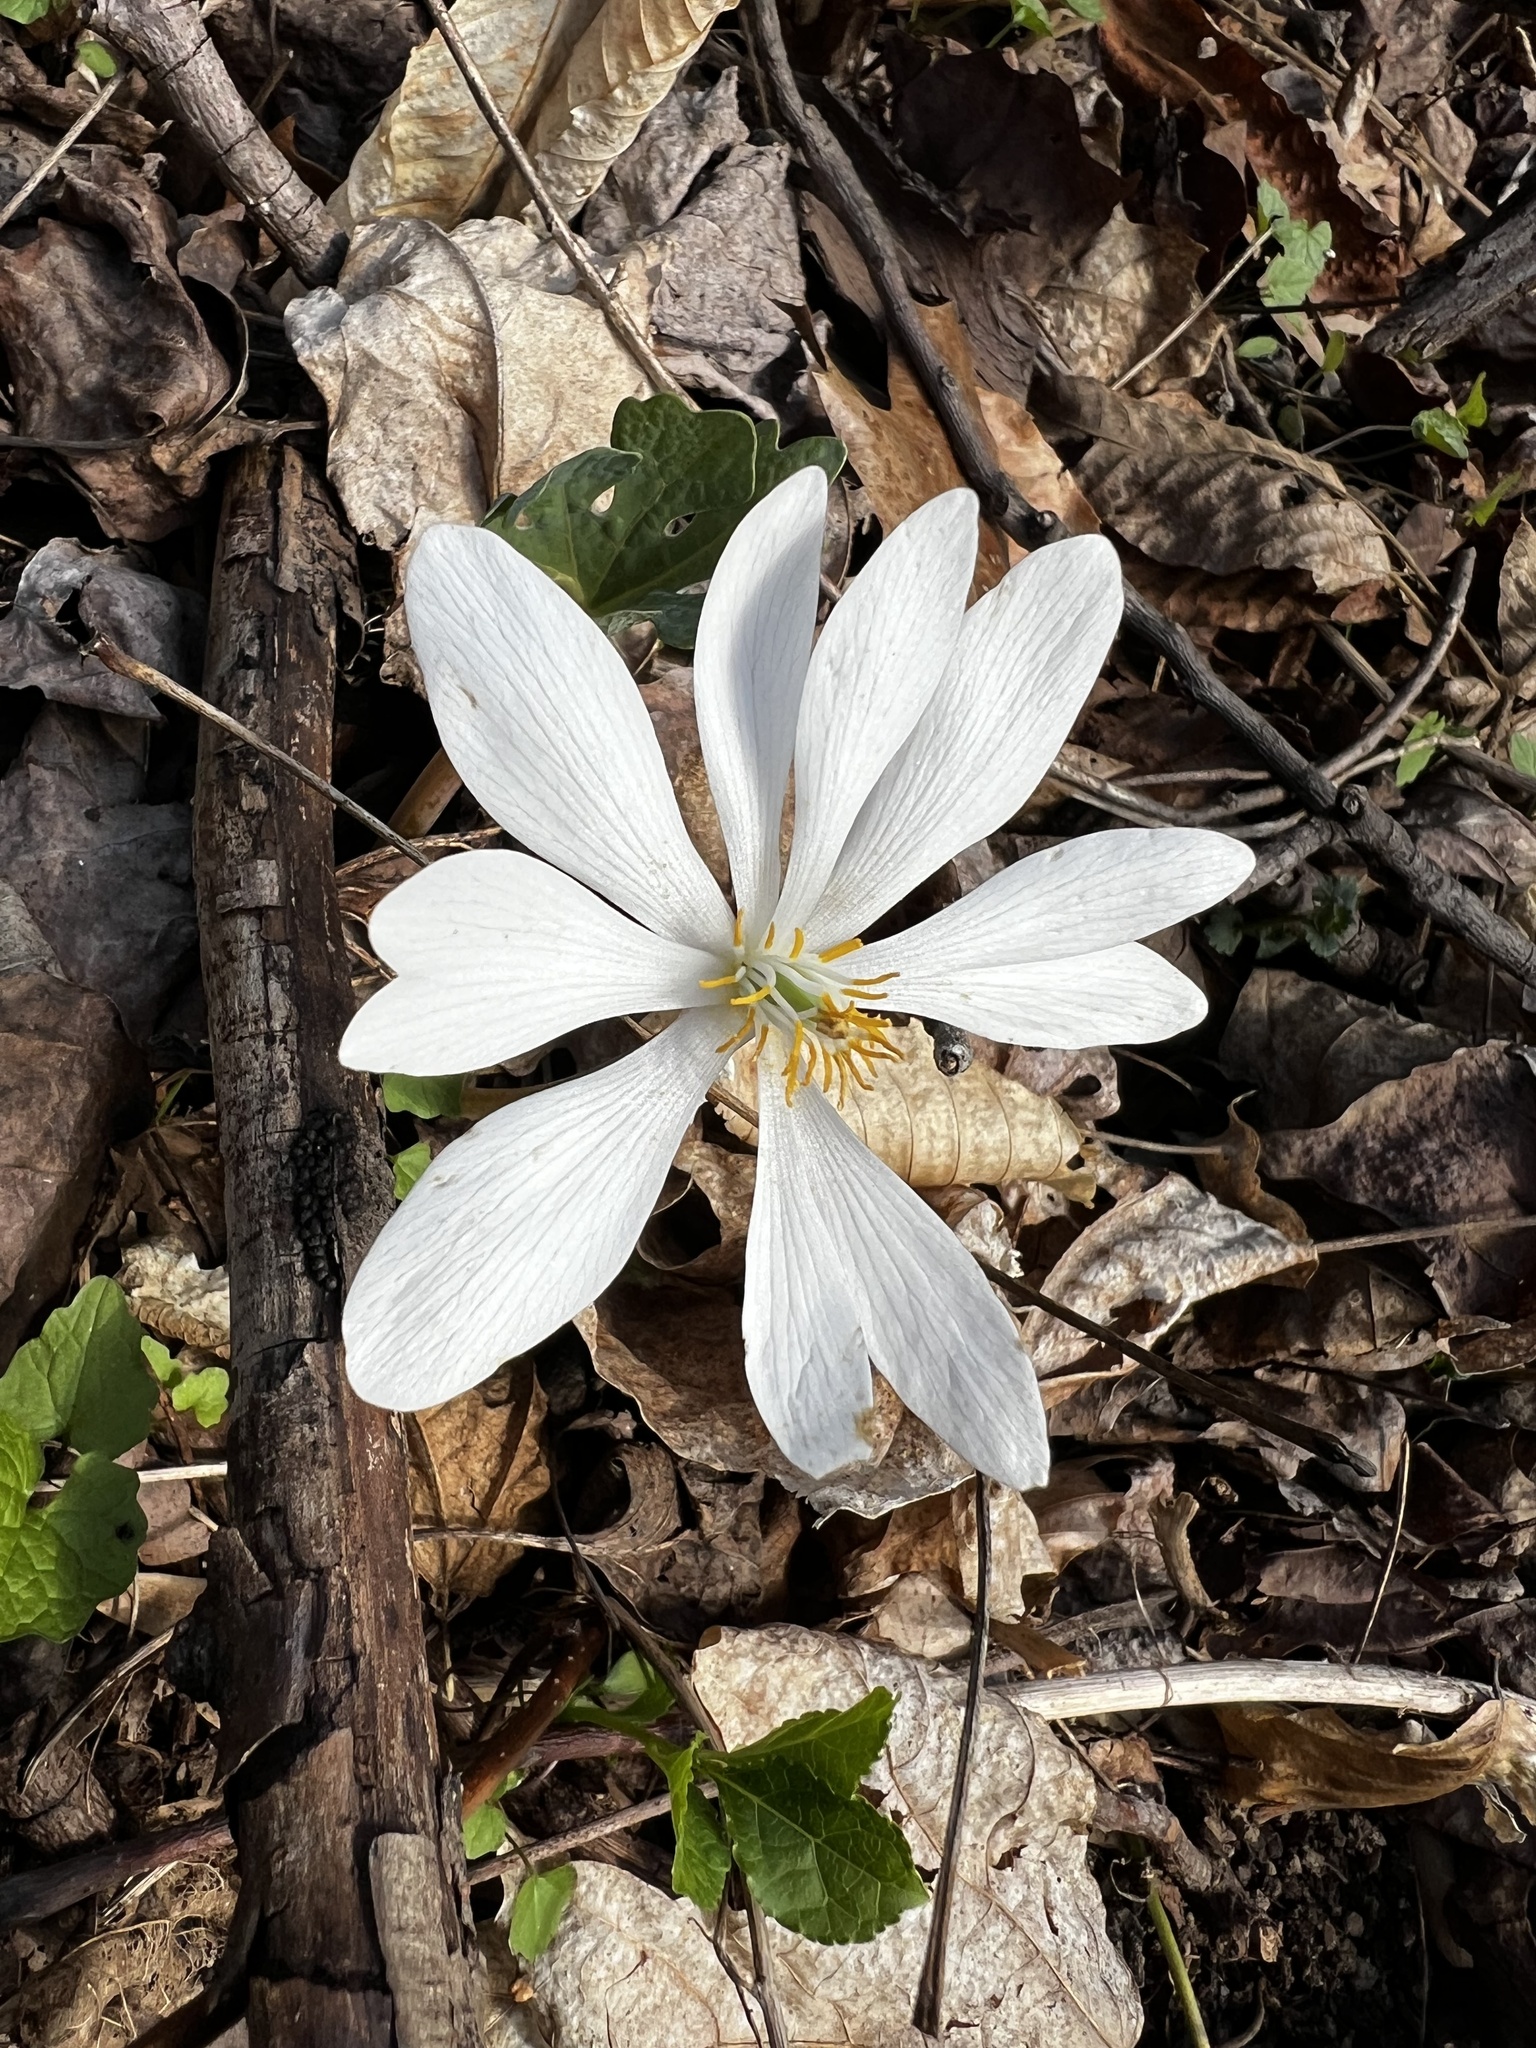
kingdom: Plantae
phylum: Tracheophyta
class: Magnoliopsida
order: Ranunculales
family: Papaveraceae
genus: Sanguinaria
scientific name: Sanguinaria canadensis
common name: Bloodroot
